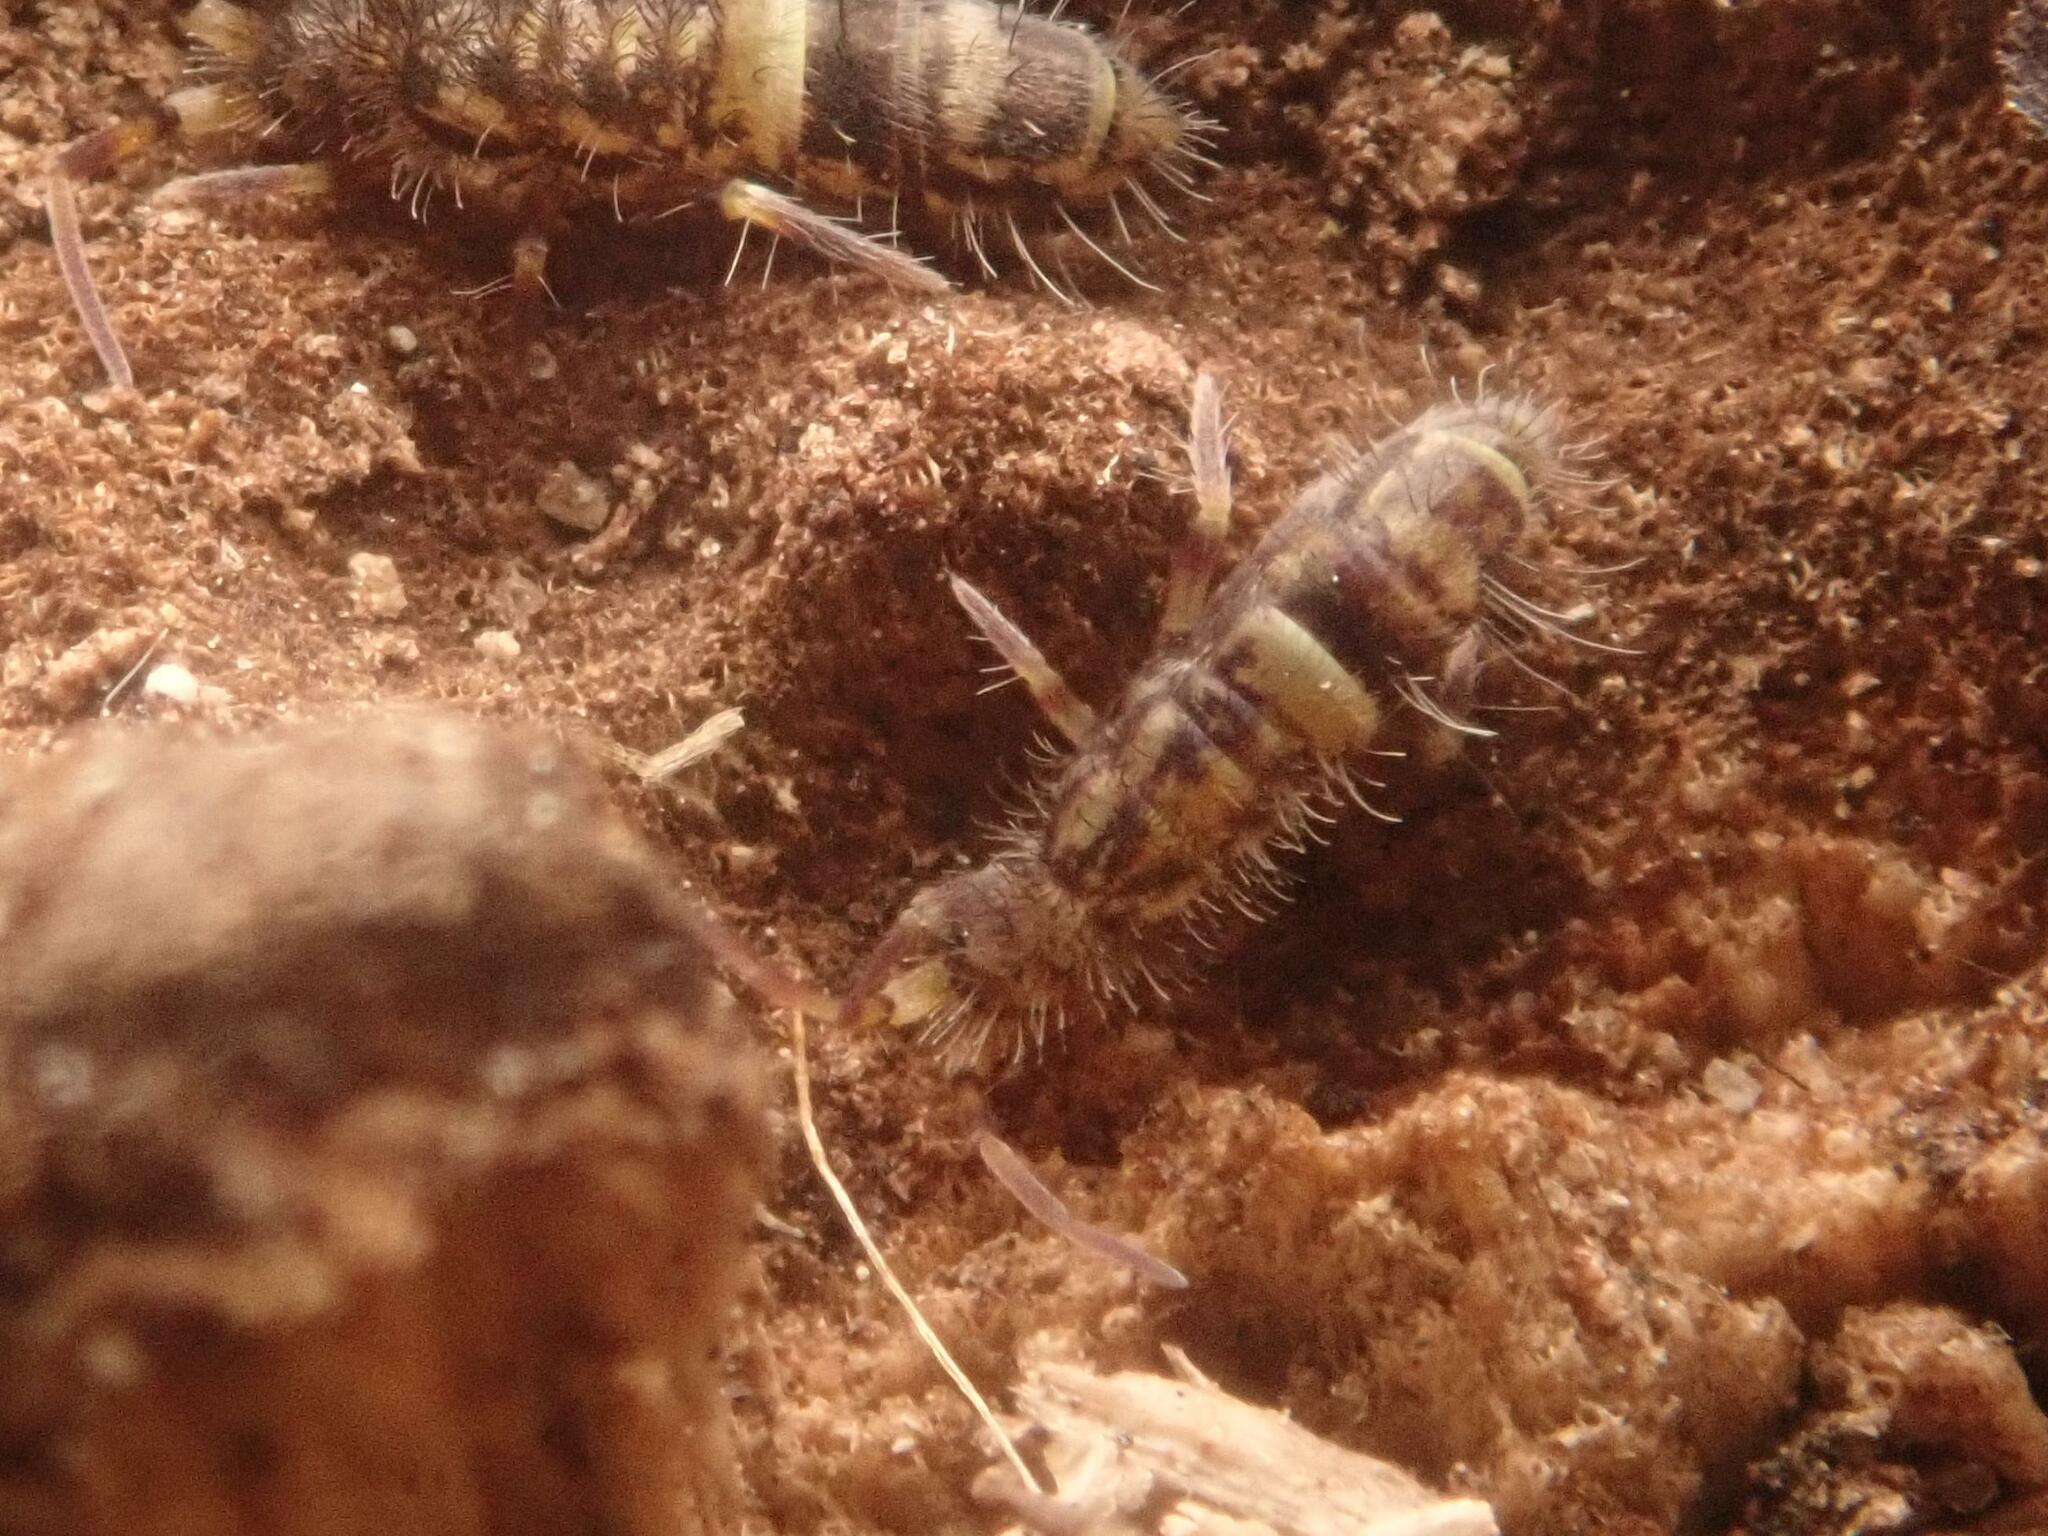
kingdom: Animalia
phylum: Arthropoda
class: Collembola
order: Entomobryomorpha
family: Orchesellidae
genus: Orchesella
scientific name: Orchesella cincta
